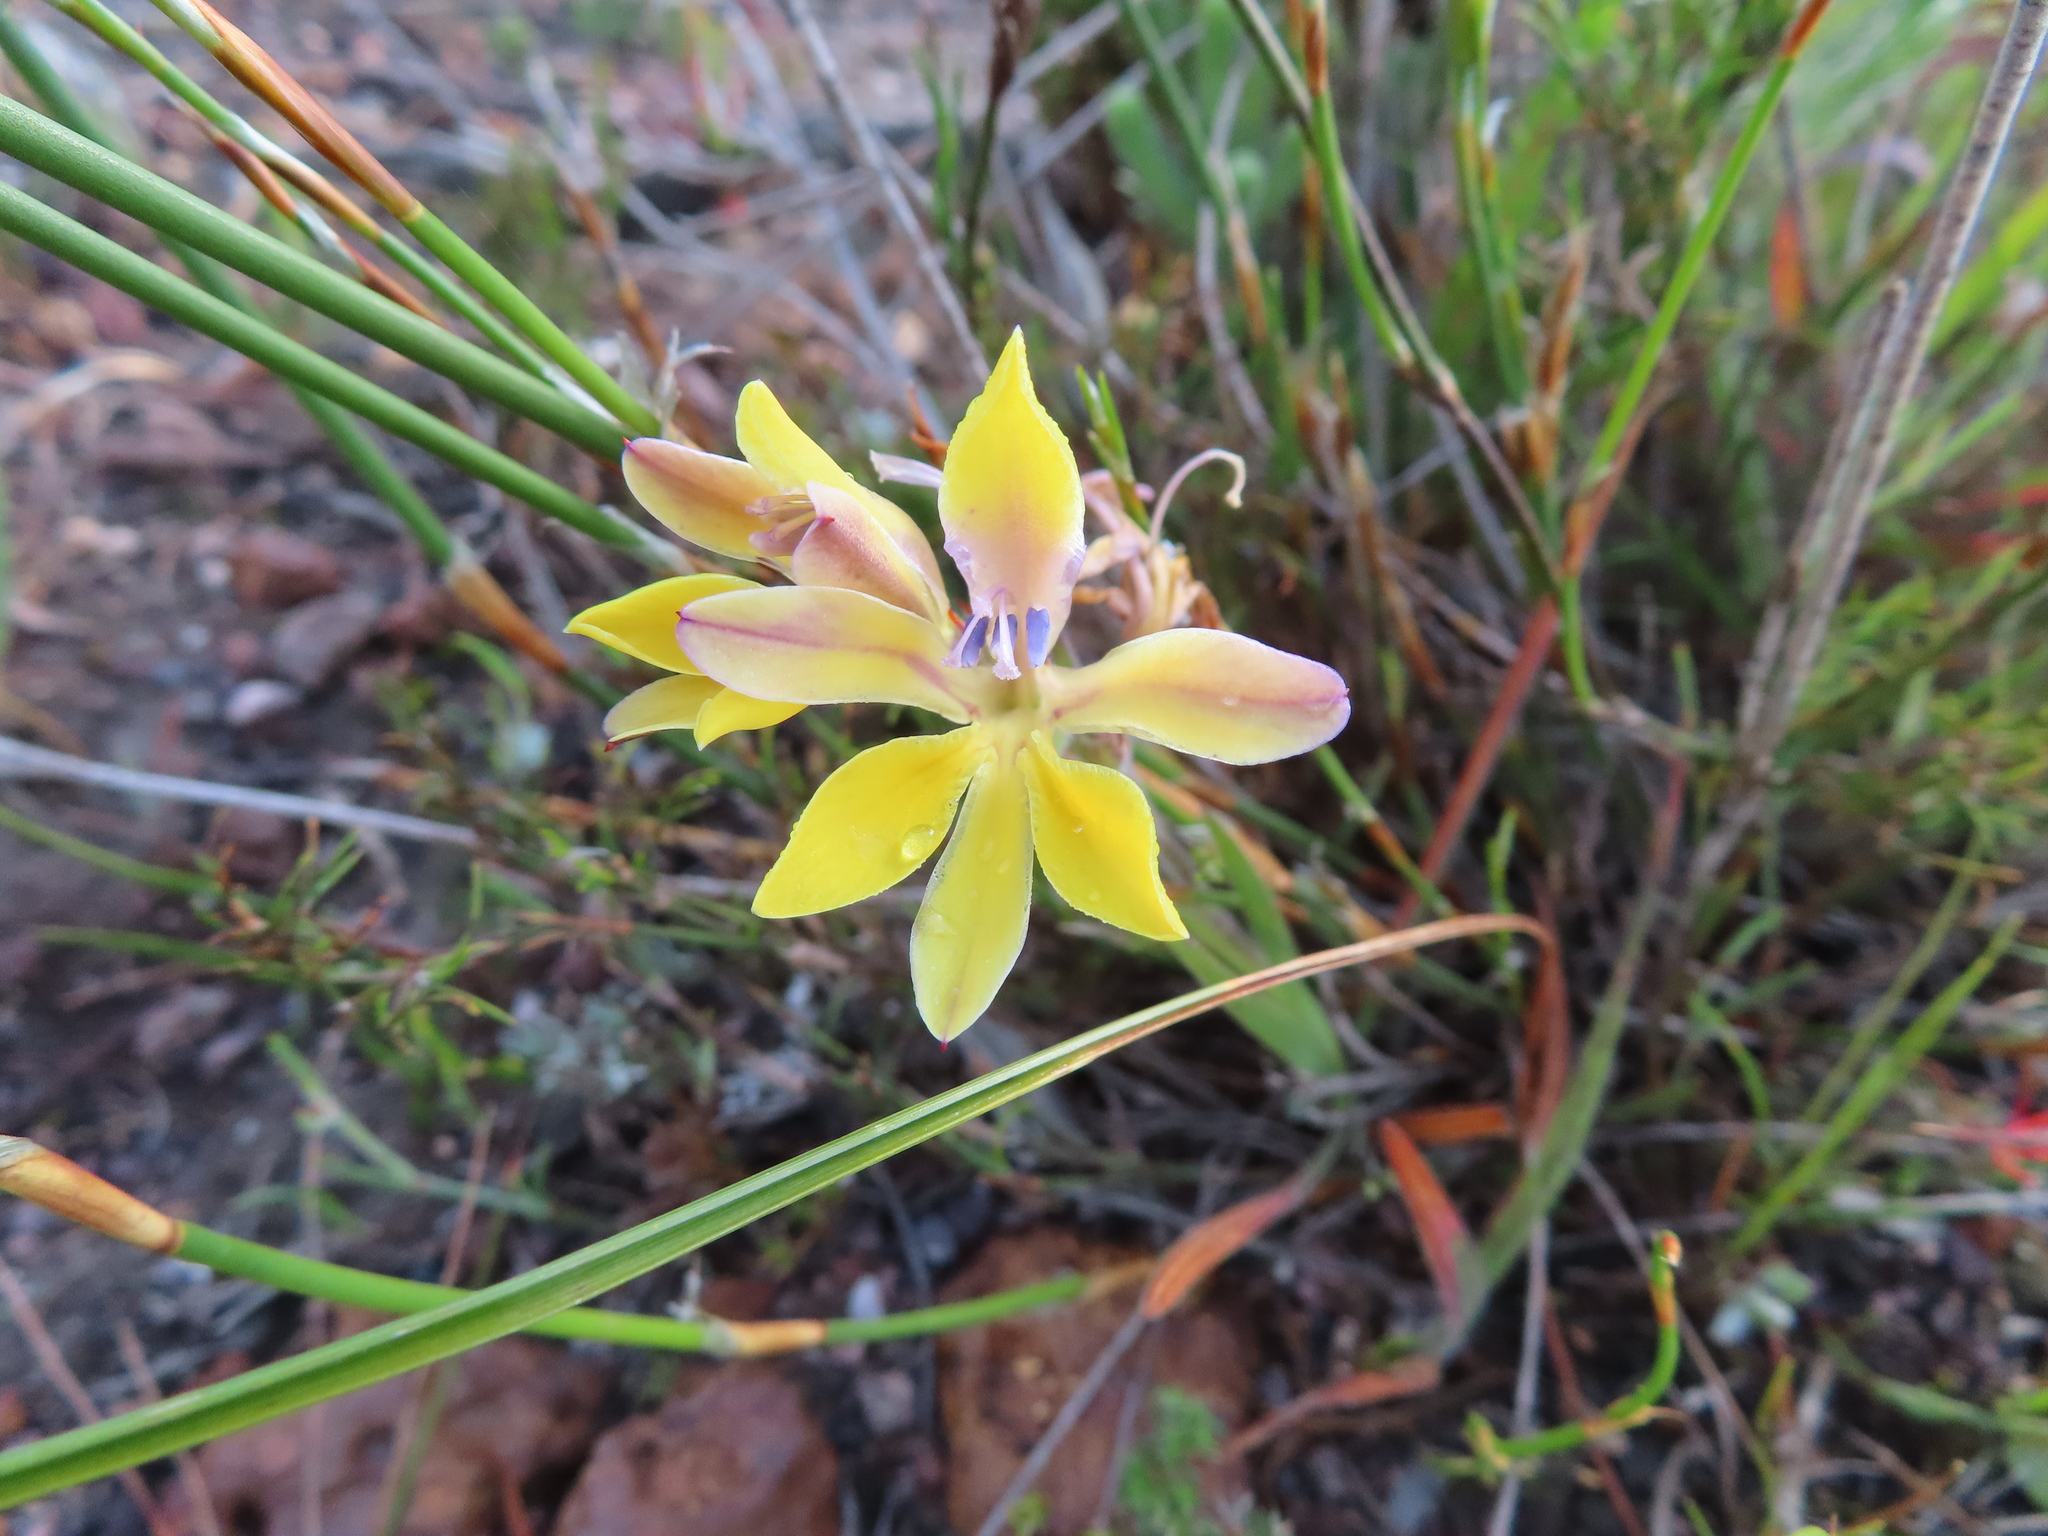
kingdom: Plantae
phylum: Tracheophyta
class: Liliopsida
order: Asparagales
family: Iridaceae
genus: Babiana
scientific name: Babiana patula
